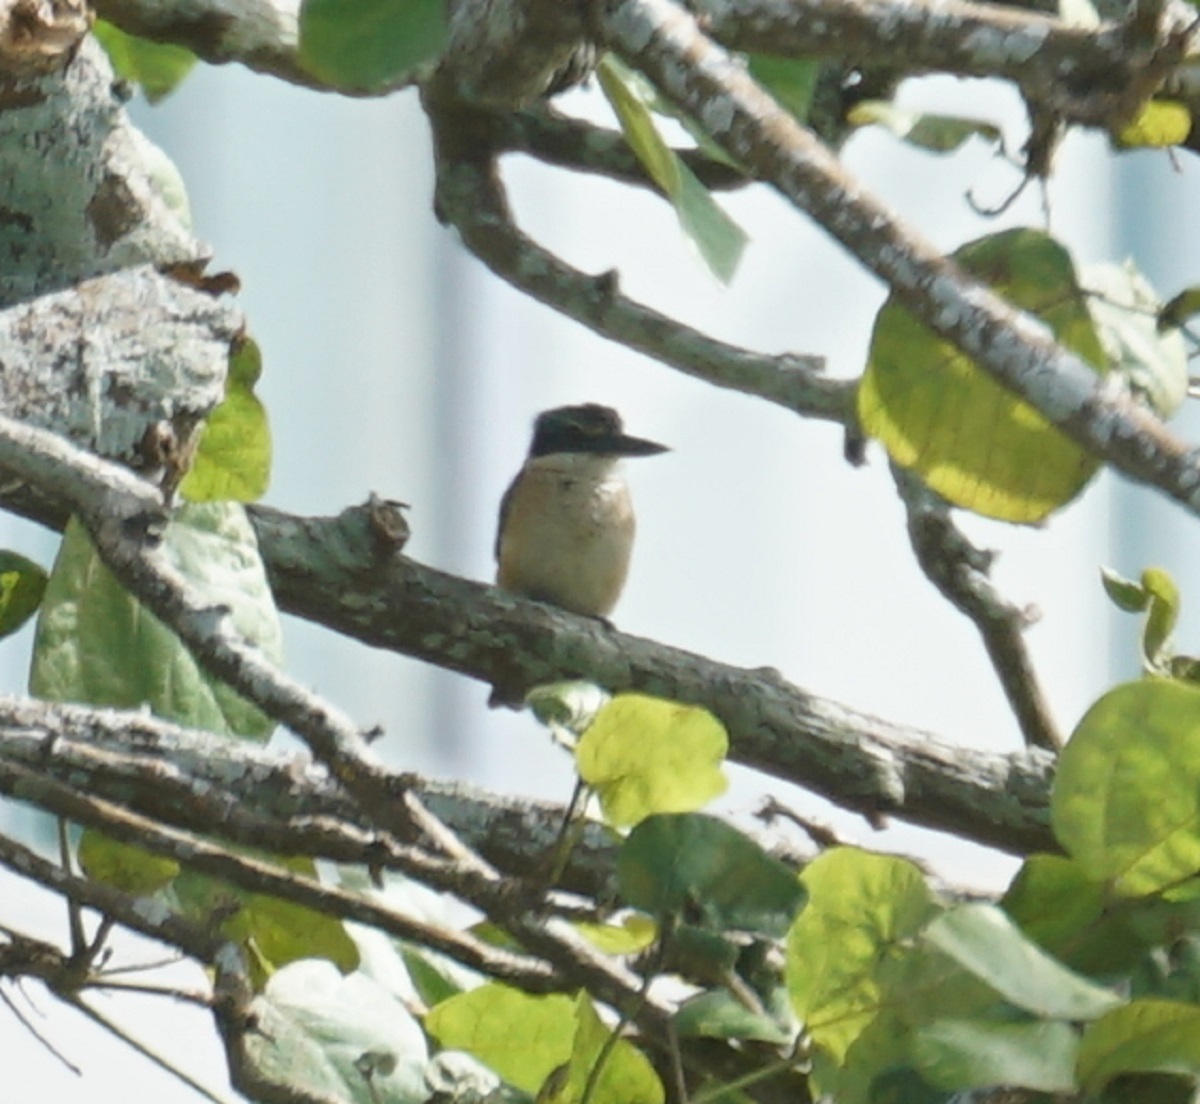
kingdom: Animalia
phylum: Chordata
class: Aves
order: Coraciiformes
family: Alcedinidae
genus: Todiramphus
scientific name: Todiramphus sanctus
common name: Sacred kingfisher
